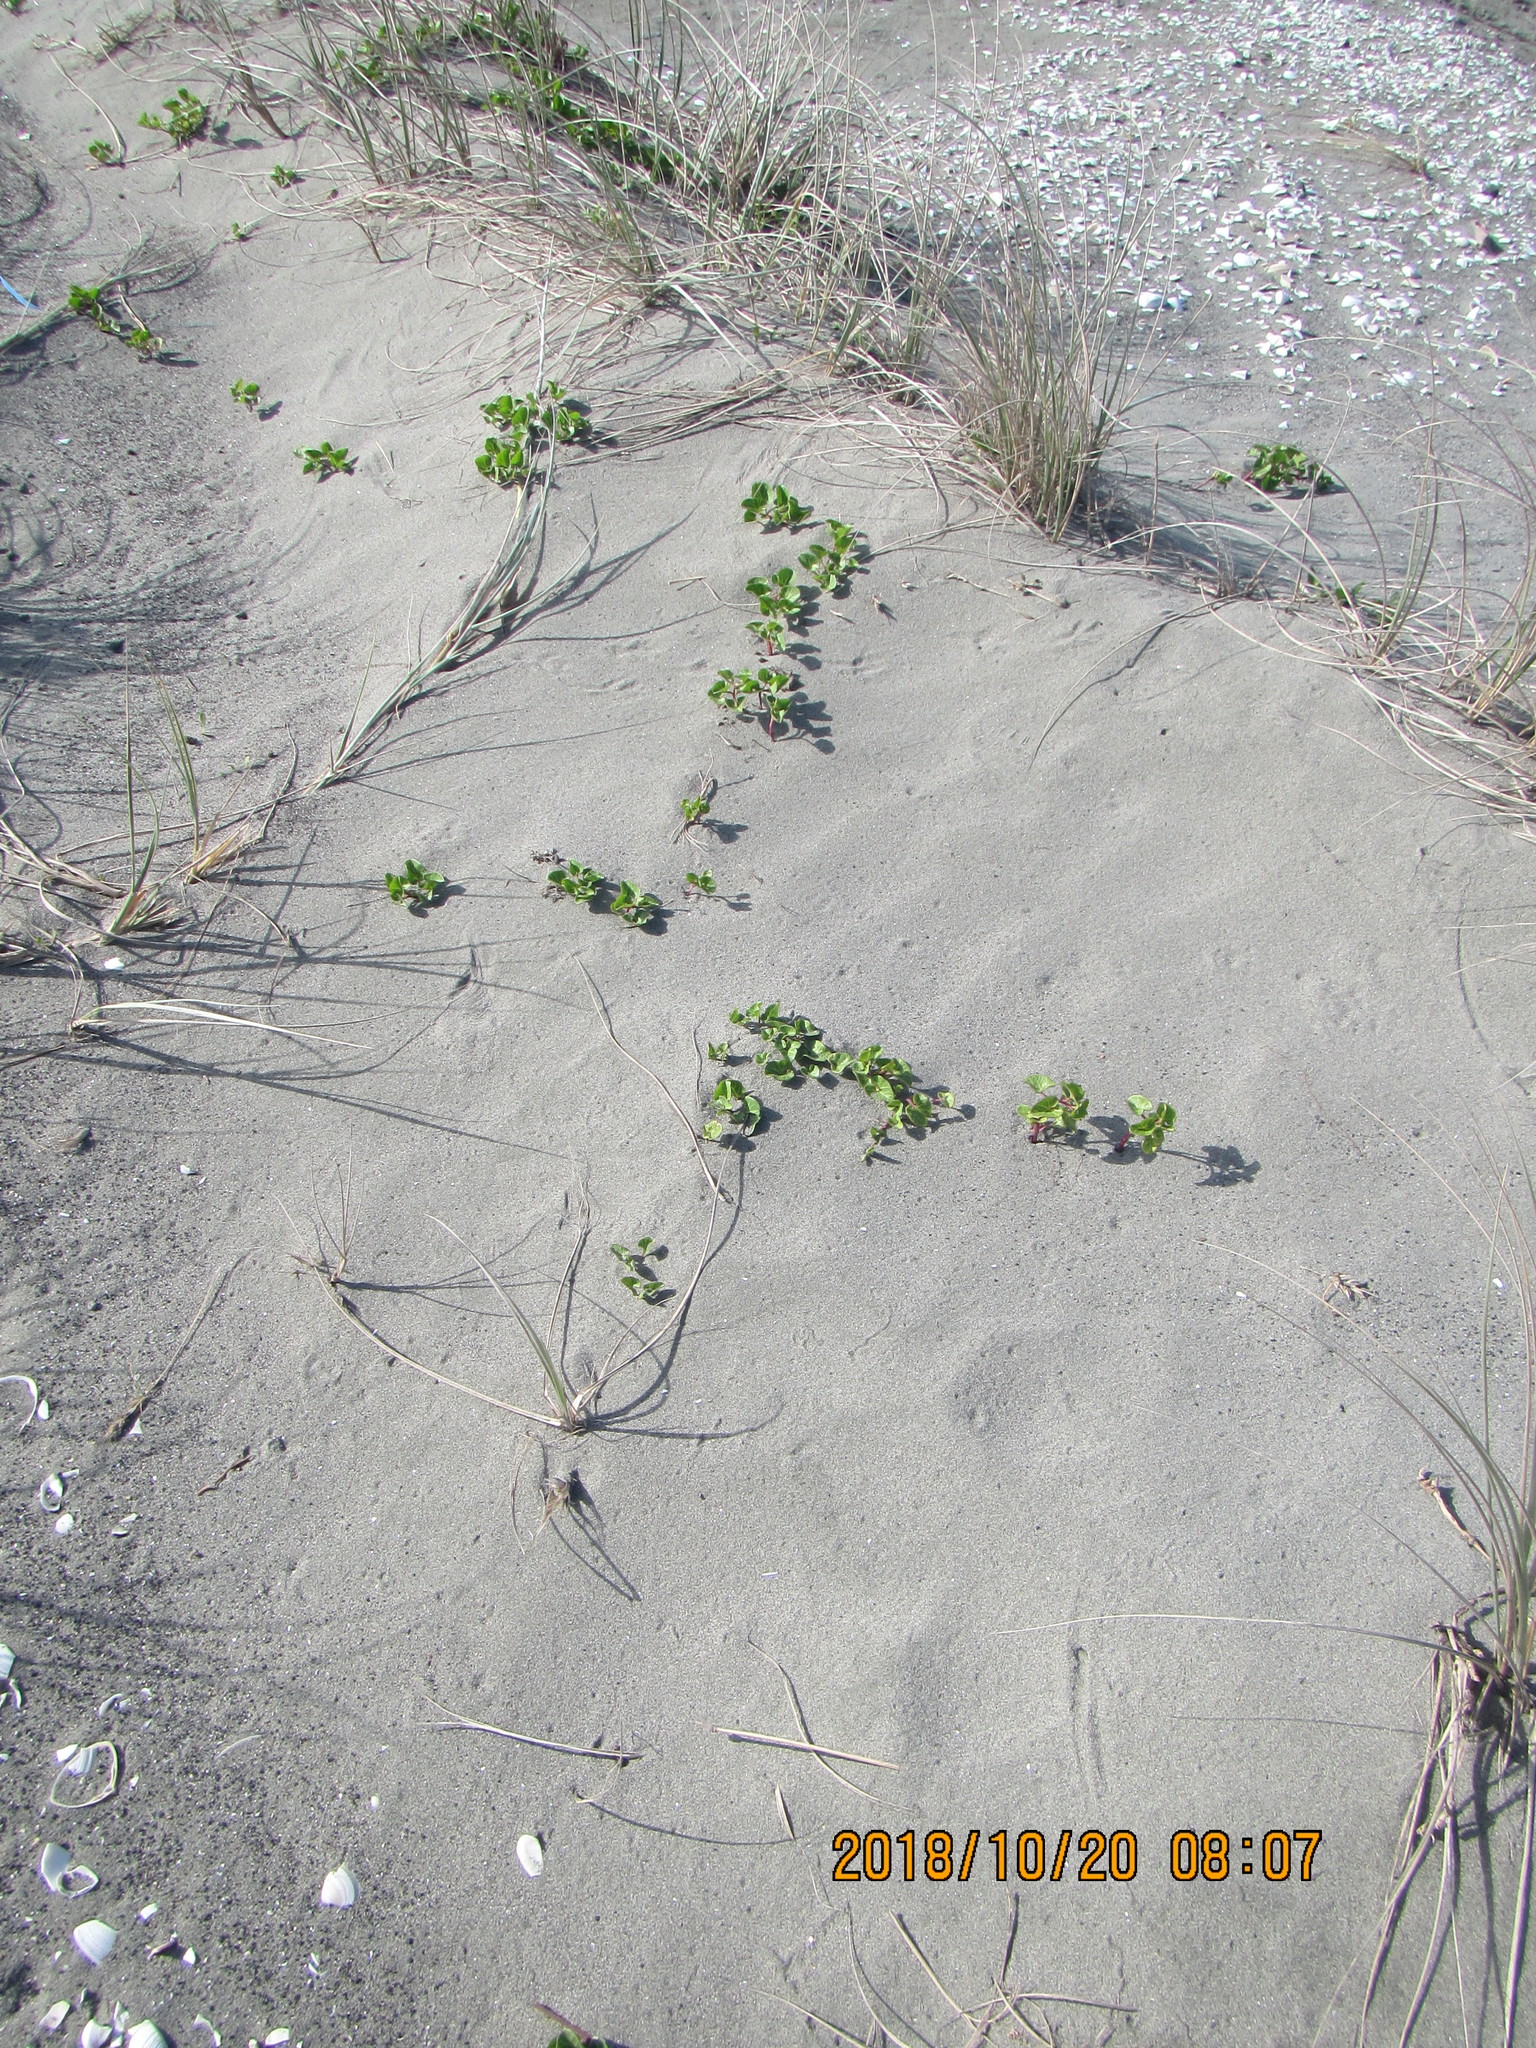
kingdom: Plantae
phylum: Tracheophyta
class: Magnoliopsida
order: Solanales
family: Convolvulaceae
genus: Calystegia
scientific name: Calystegia soldanella
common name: Sea bindweed
